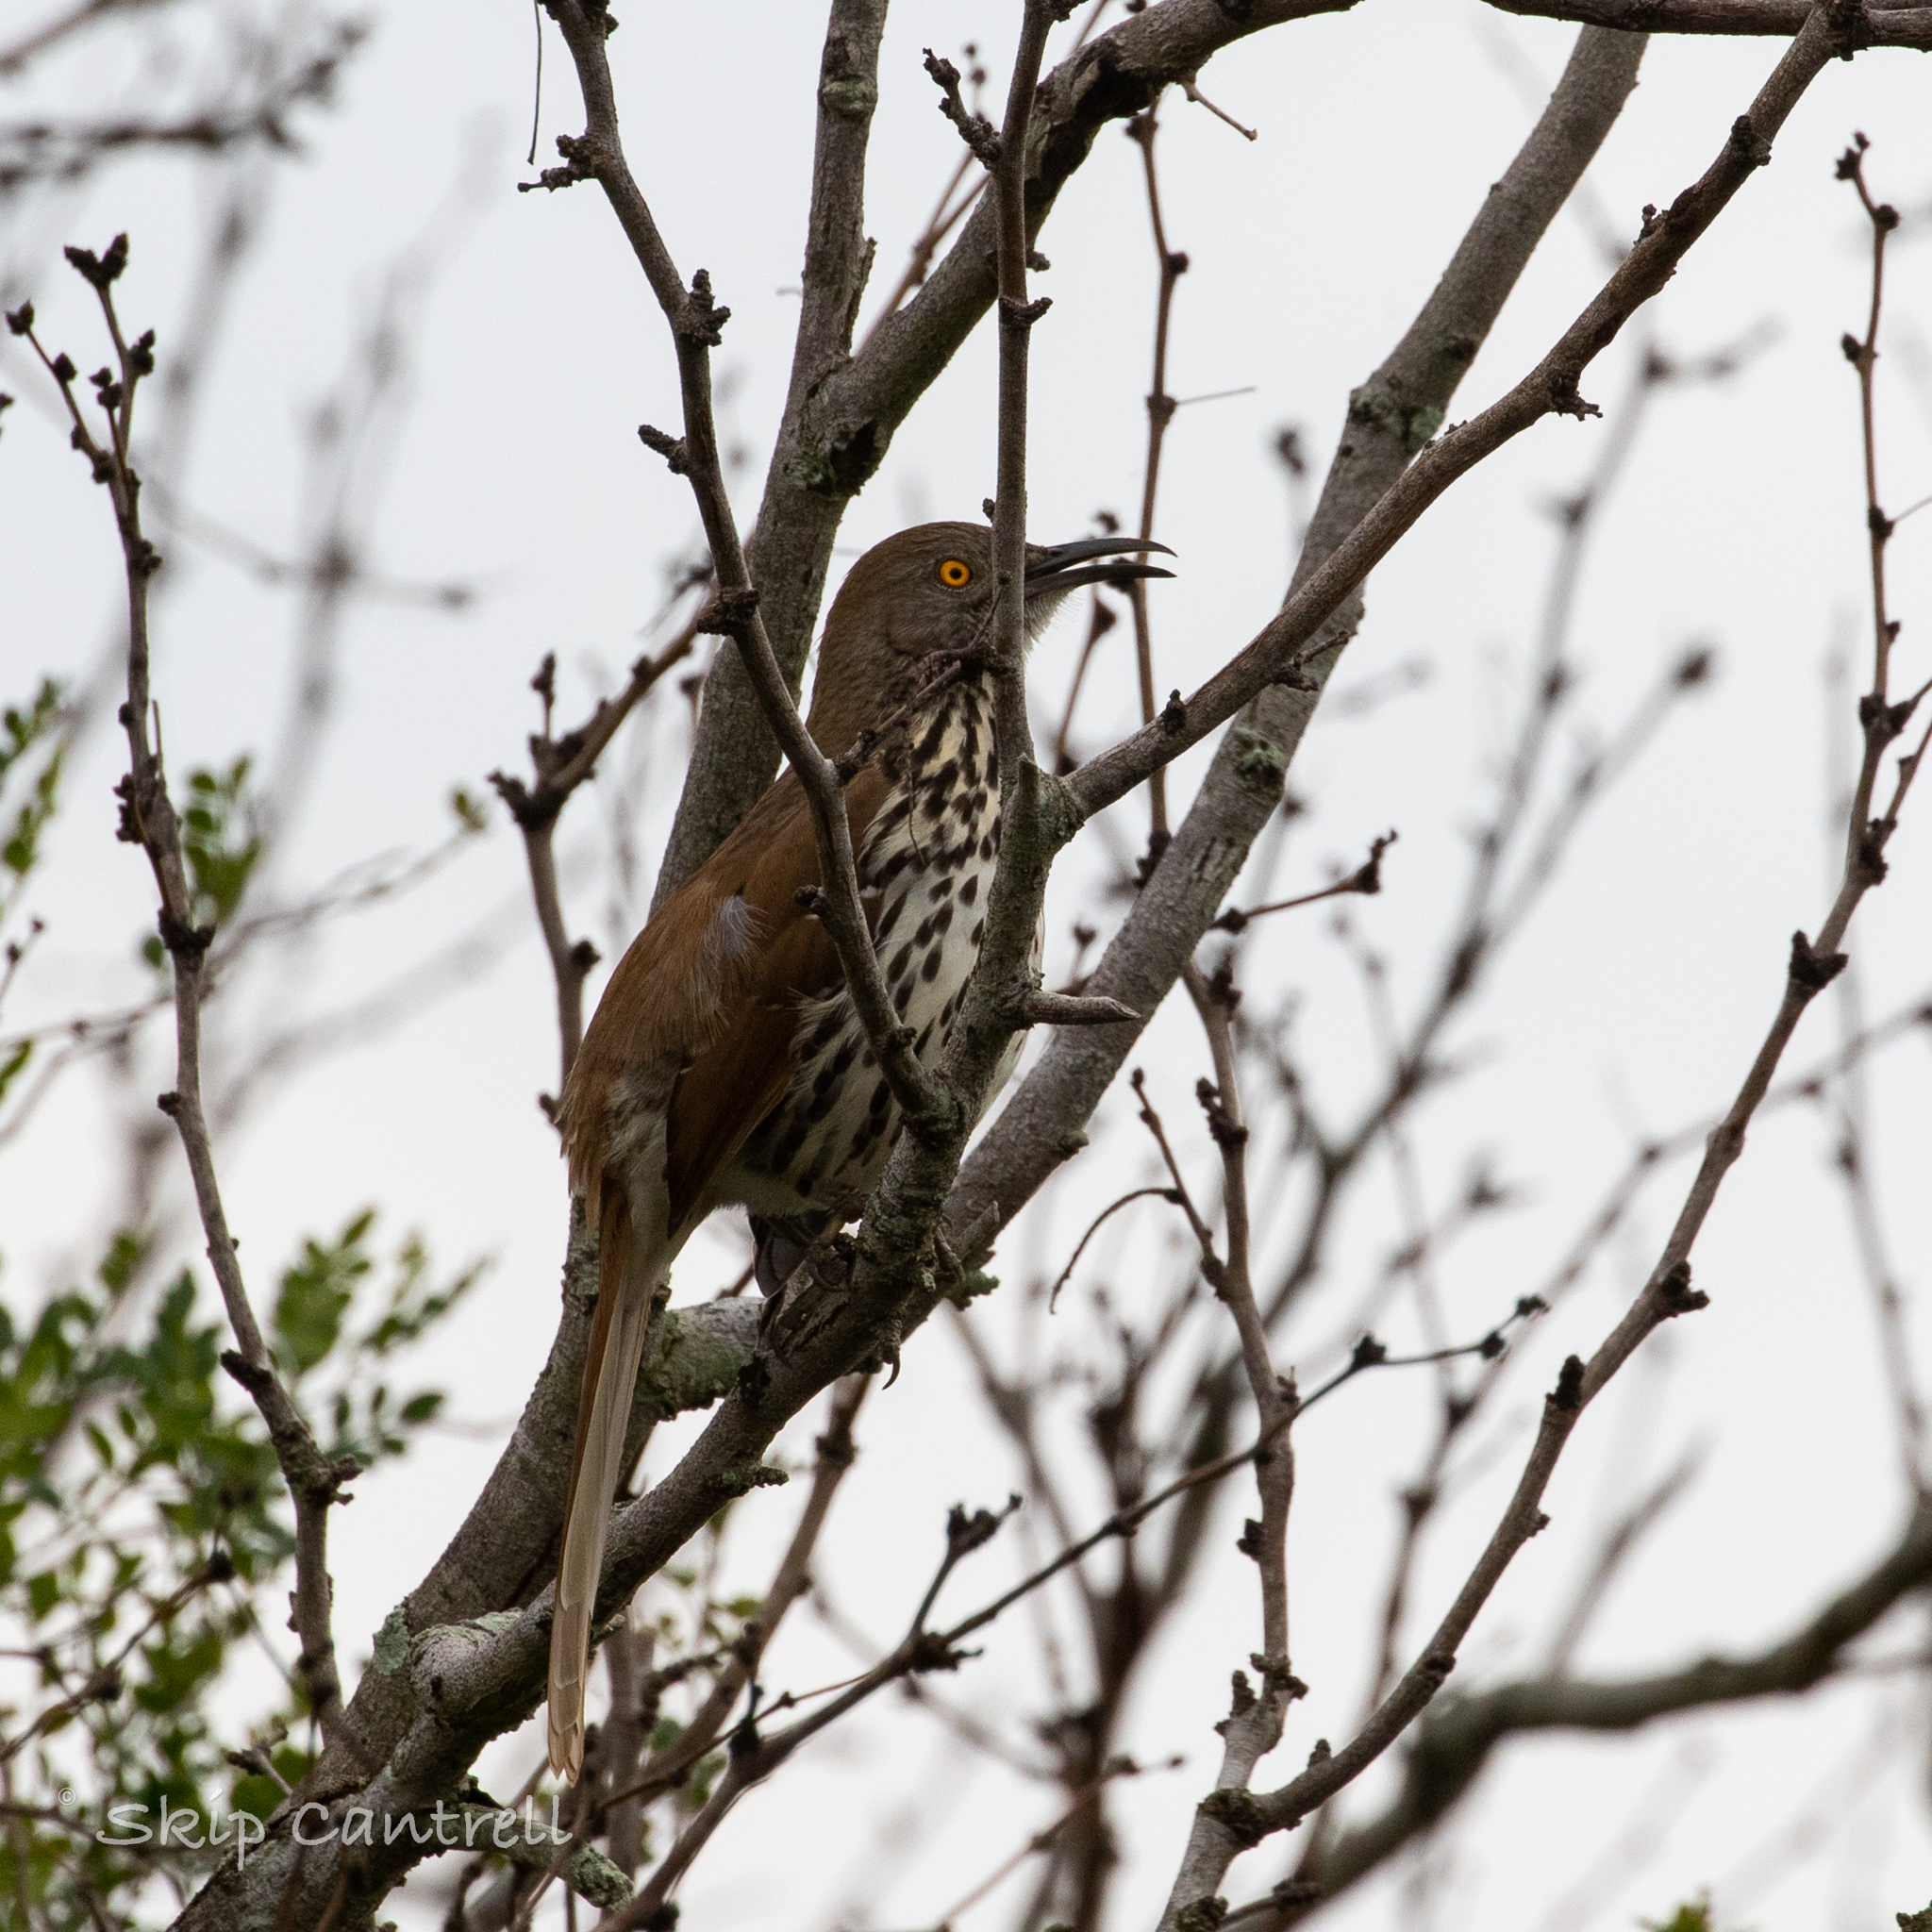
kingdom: Animalia
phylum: Chordata
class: Aves
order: Passeriformes
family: Mimidae
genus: Toxostoma
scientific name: Toxostoma longirostre
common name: Long-billed thrasher
